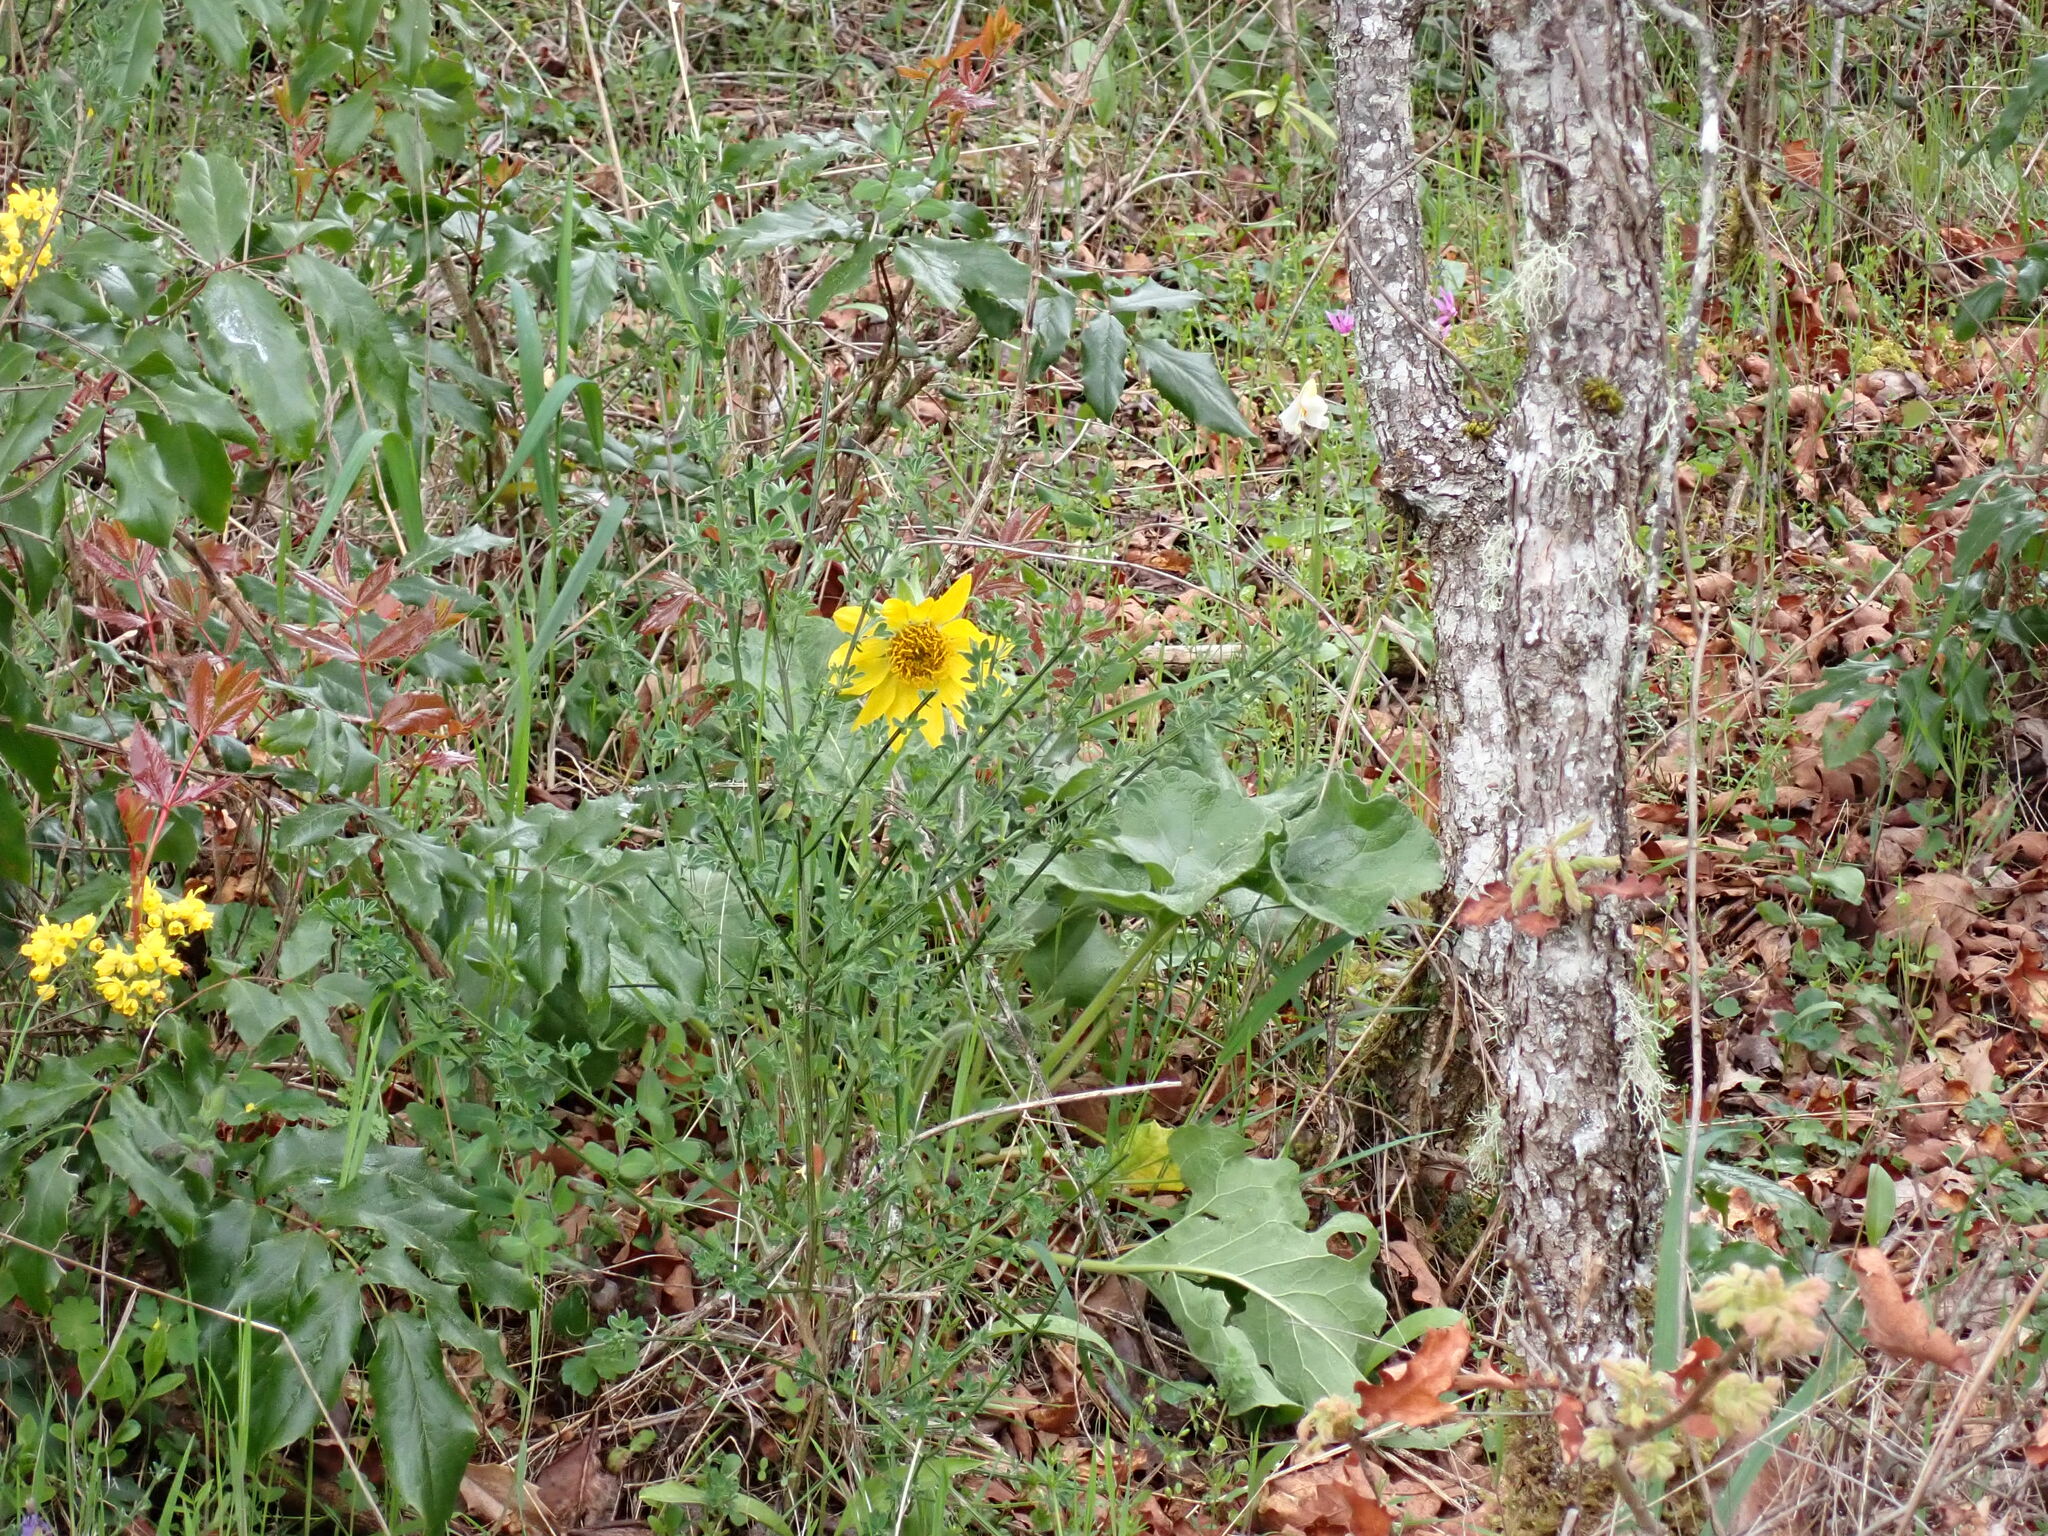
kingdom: Plantae
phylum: Tracheophyta
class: Magnoliopsida
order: Asterales
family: Asteraceae
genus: Balsamorhiza
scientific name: Balsamorhiza deltoidea
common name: Deltoid balsamroot
